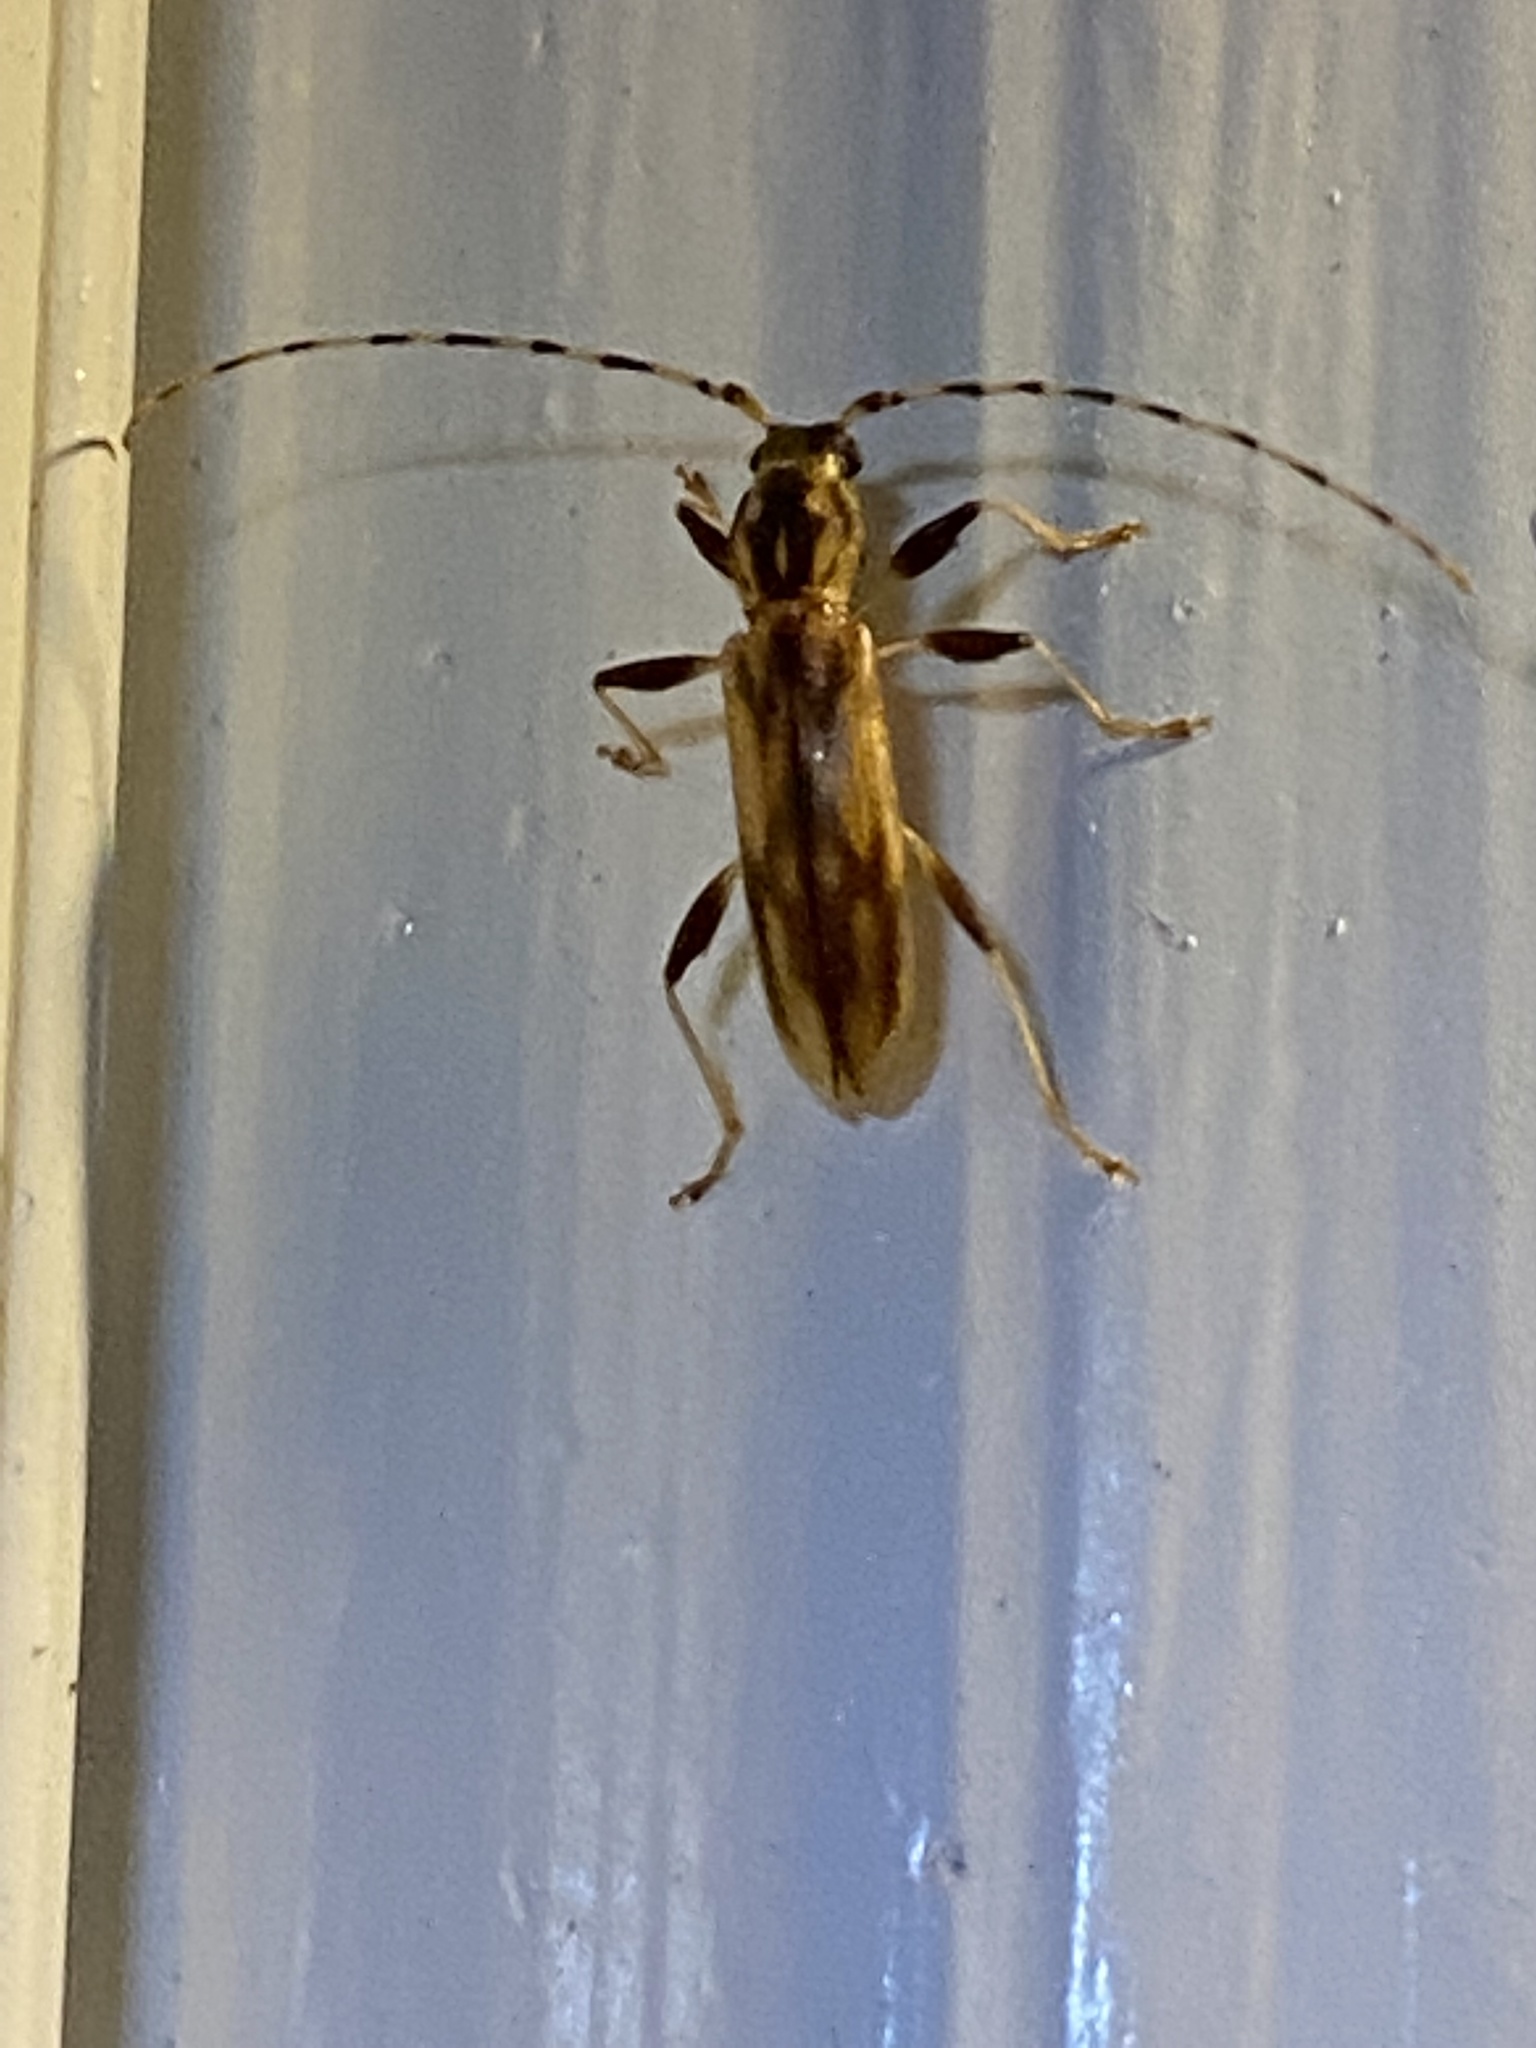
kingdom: Animalia
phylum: Arthropoda
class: Insecta
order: Coleoptera
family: Cerambycidae
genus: Curius
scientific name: Curius dentatus
